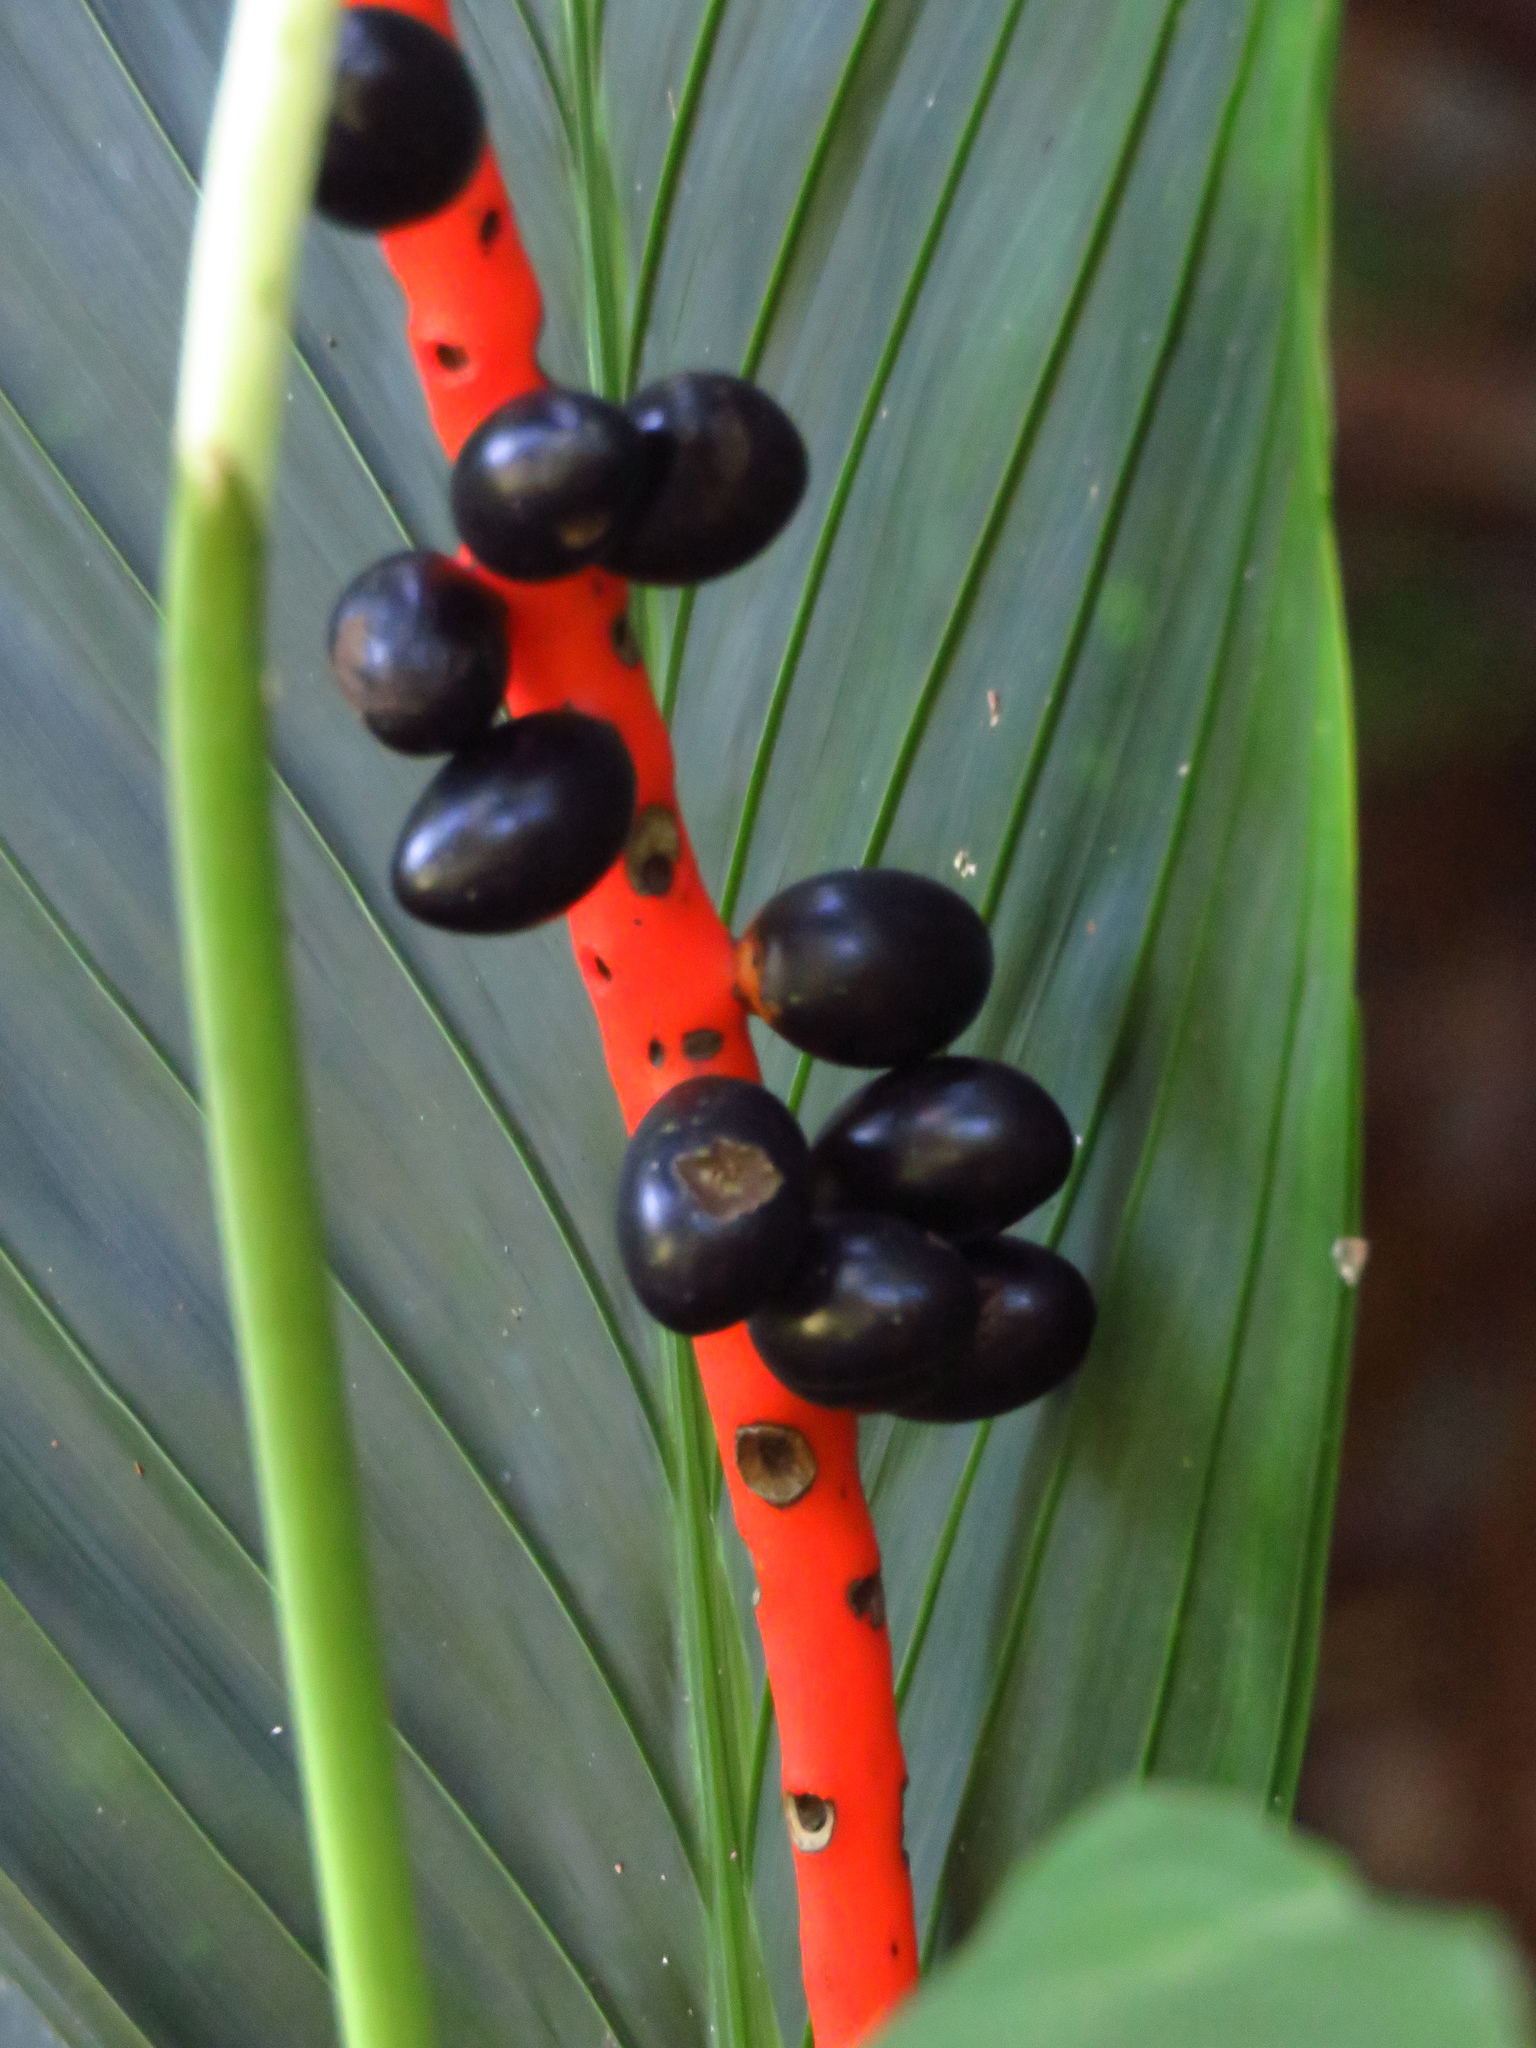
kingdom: Plantae
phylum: Tracheophyta
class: Liliopsida
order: Arecales
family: Arecaceae
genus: Chamaedorea
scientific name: Chamaedorea ernesti-augusti
